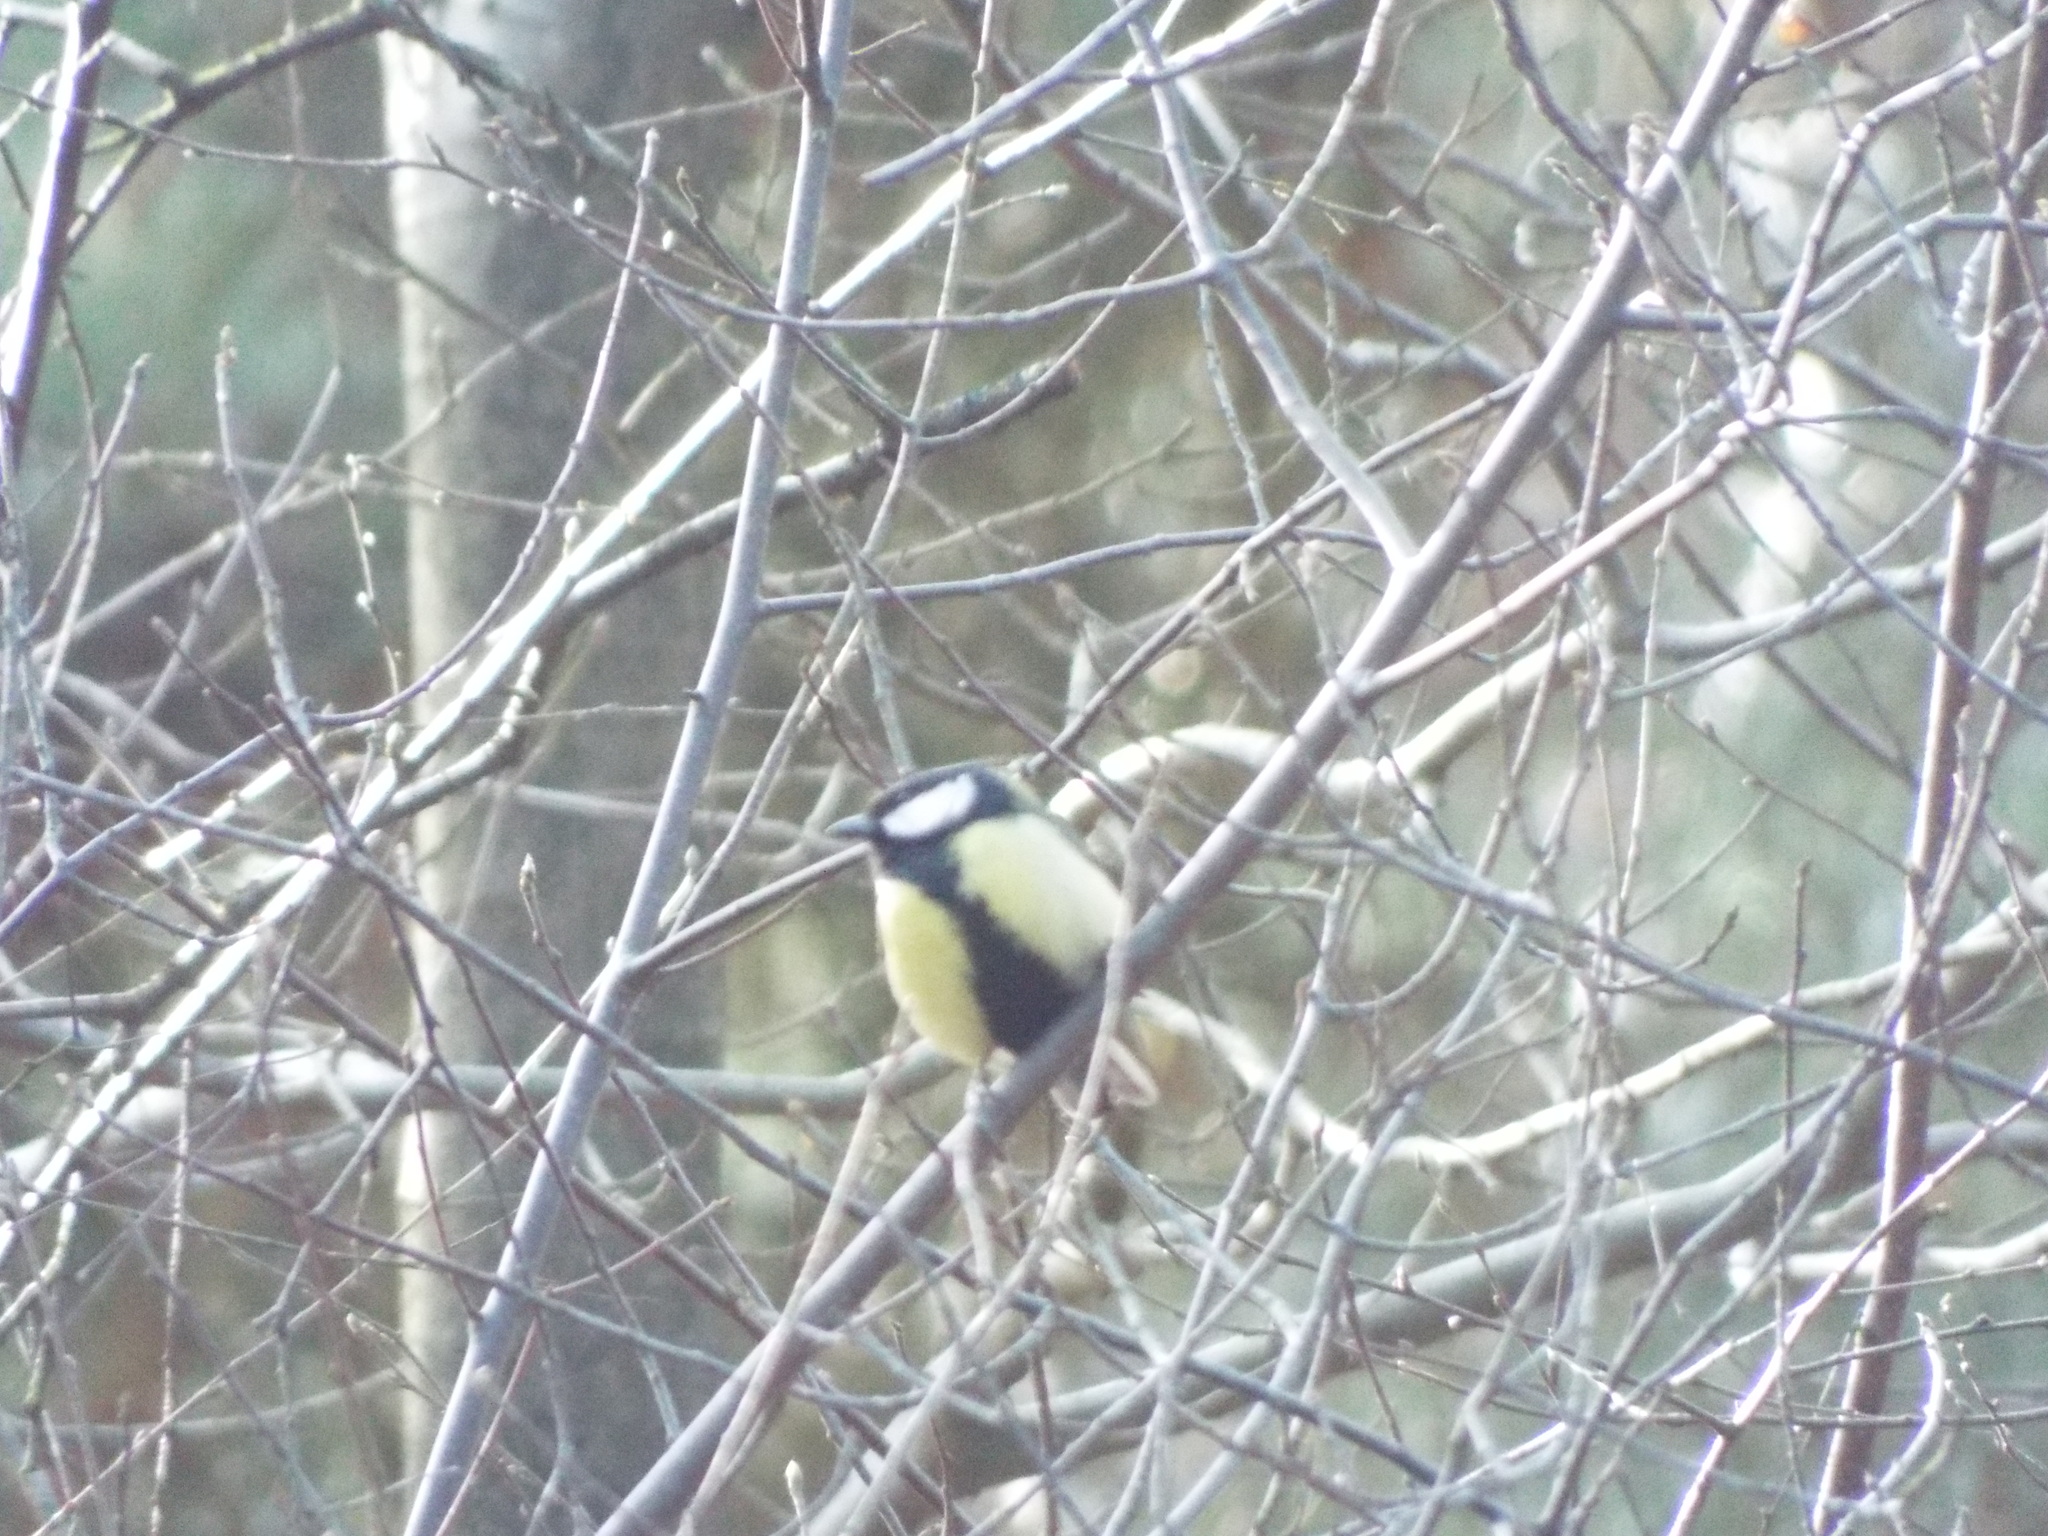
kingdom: Animalia
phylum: Chordata
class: Aves
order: Passeriformes
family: Paridae
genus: Parus
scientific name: Parus major
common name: Great tit
